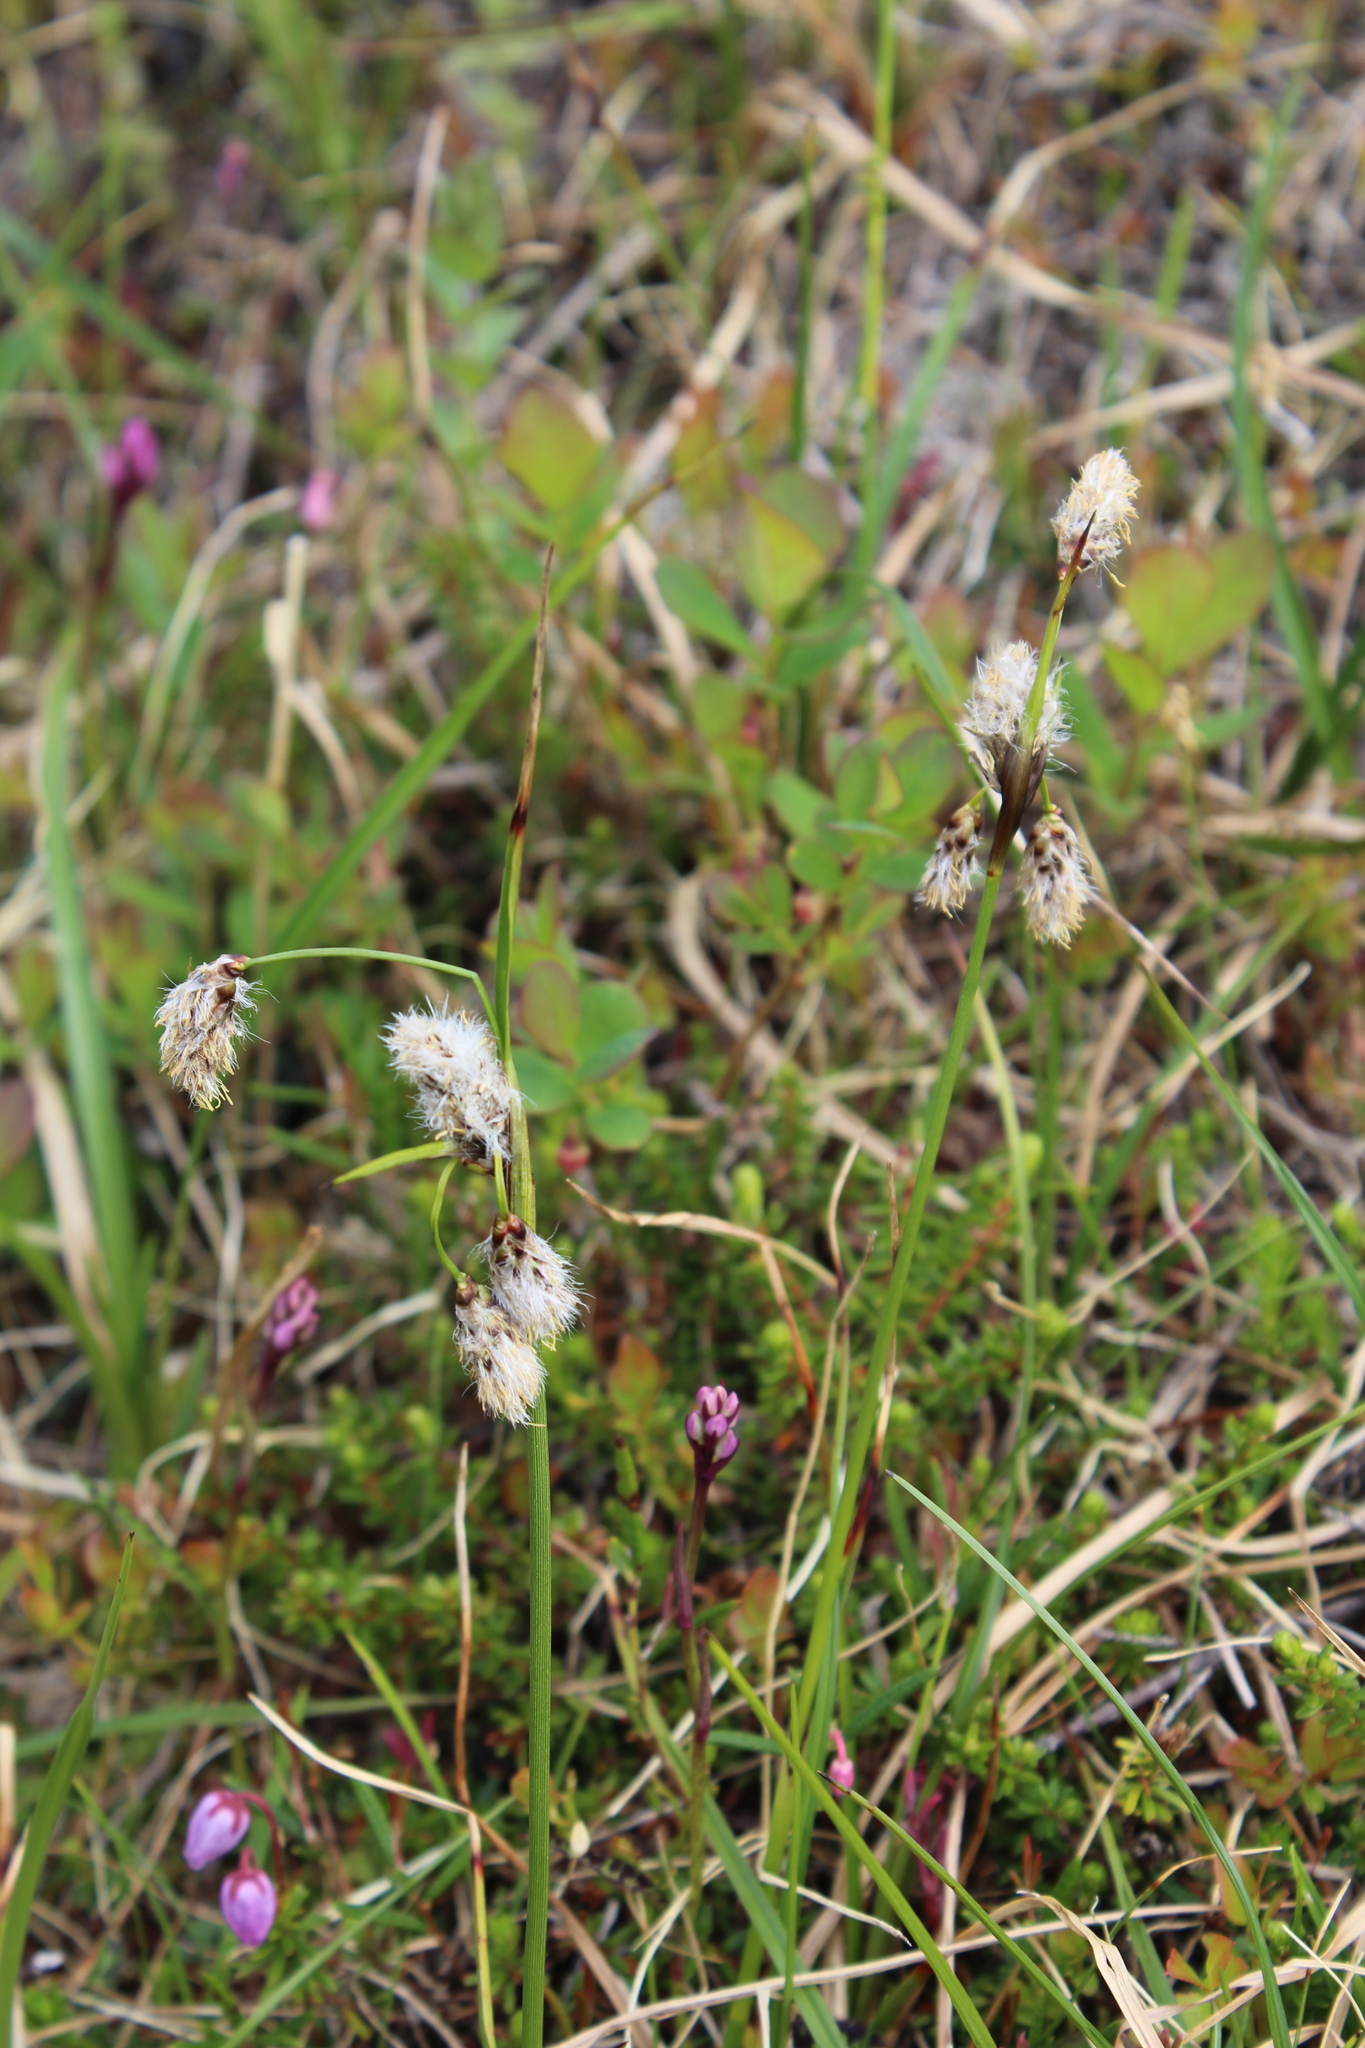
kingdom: Plantae
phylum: Tracheophyta
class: Liliopsida
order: Poales
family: Cyperaceae
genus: Eriophorum
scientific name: Eriophorum angustifolium
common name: Common cottongrass
